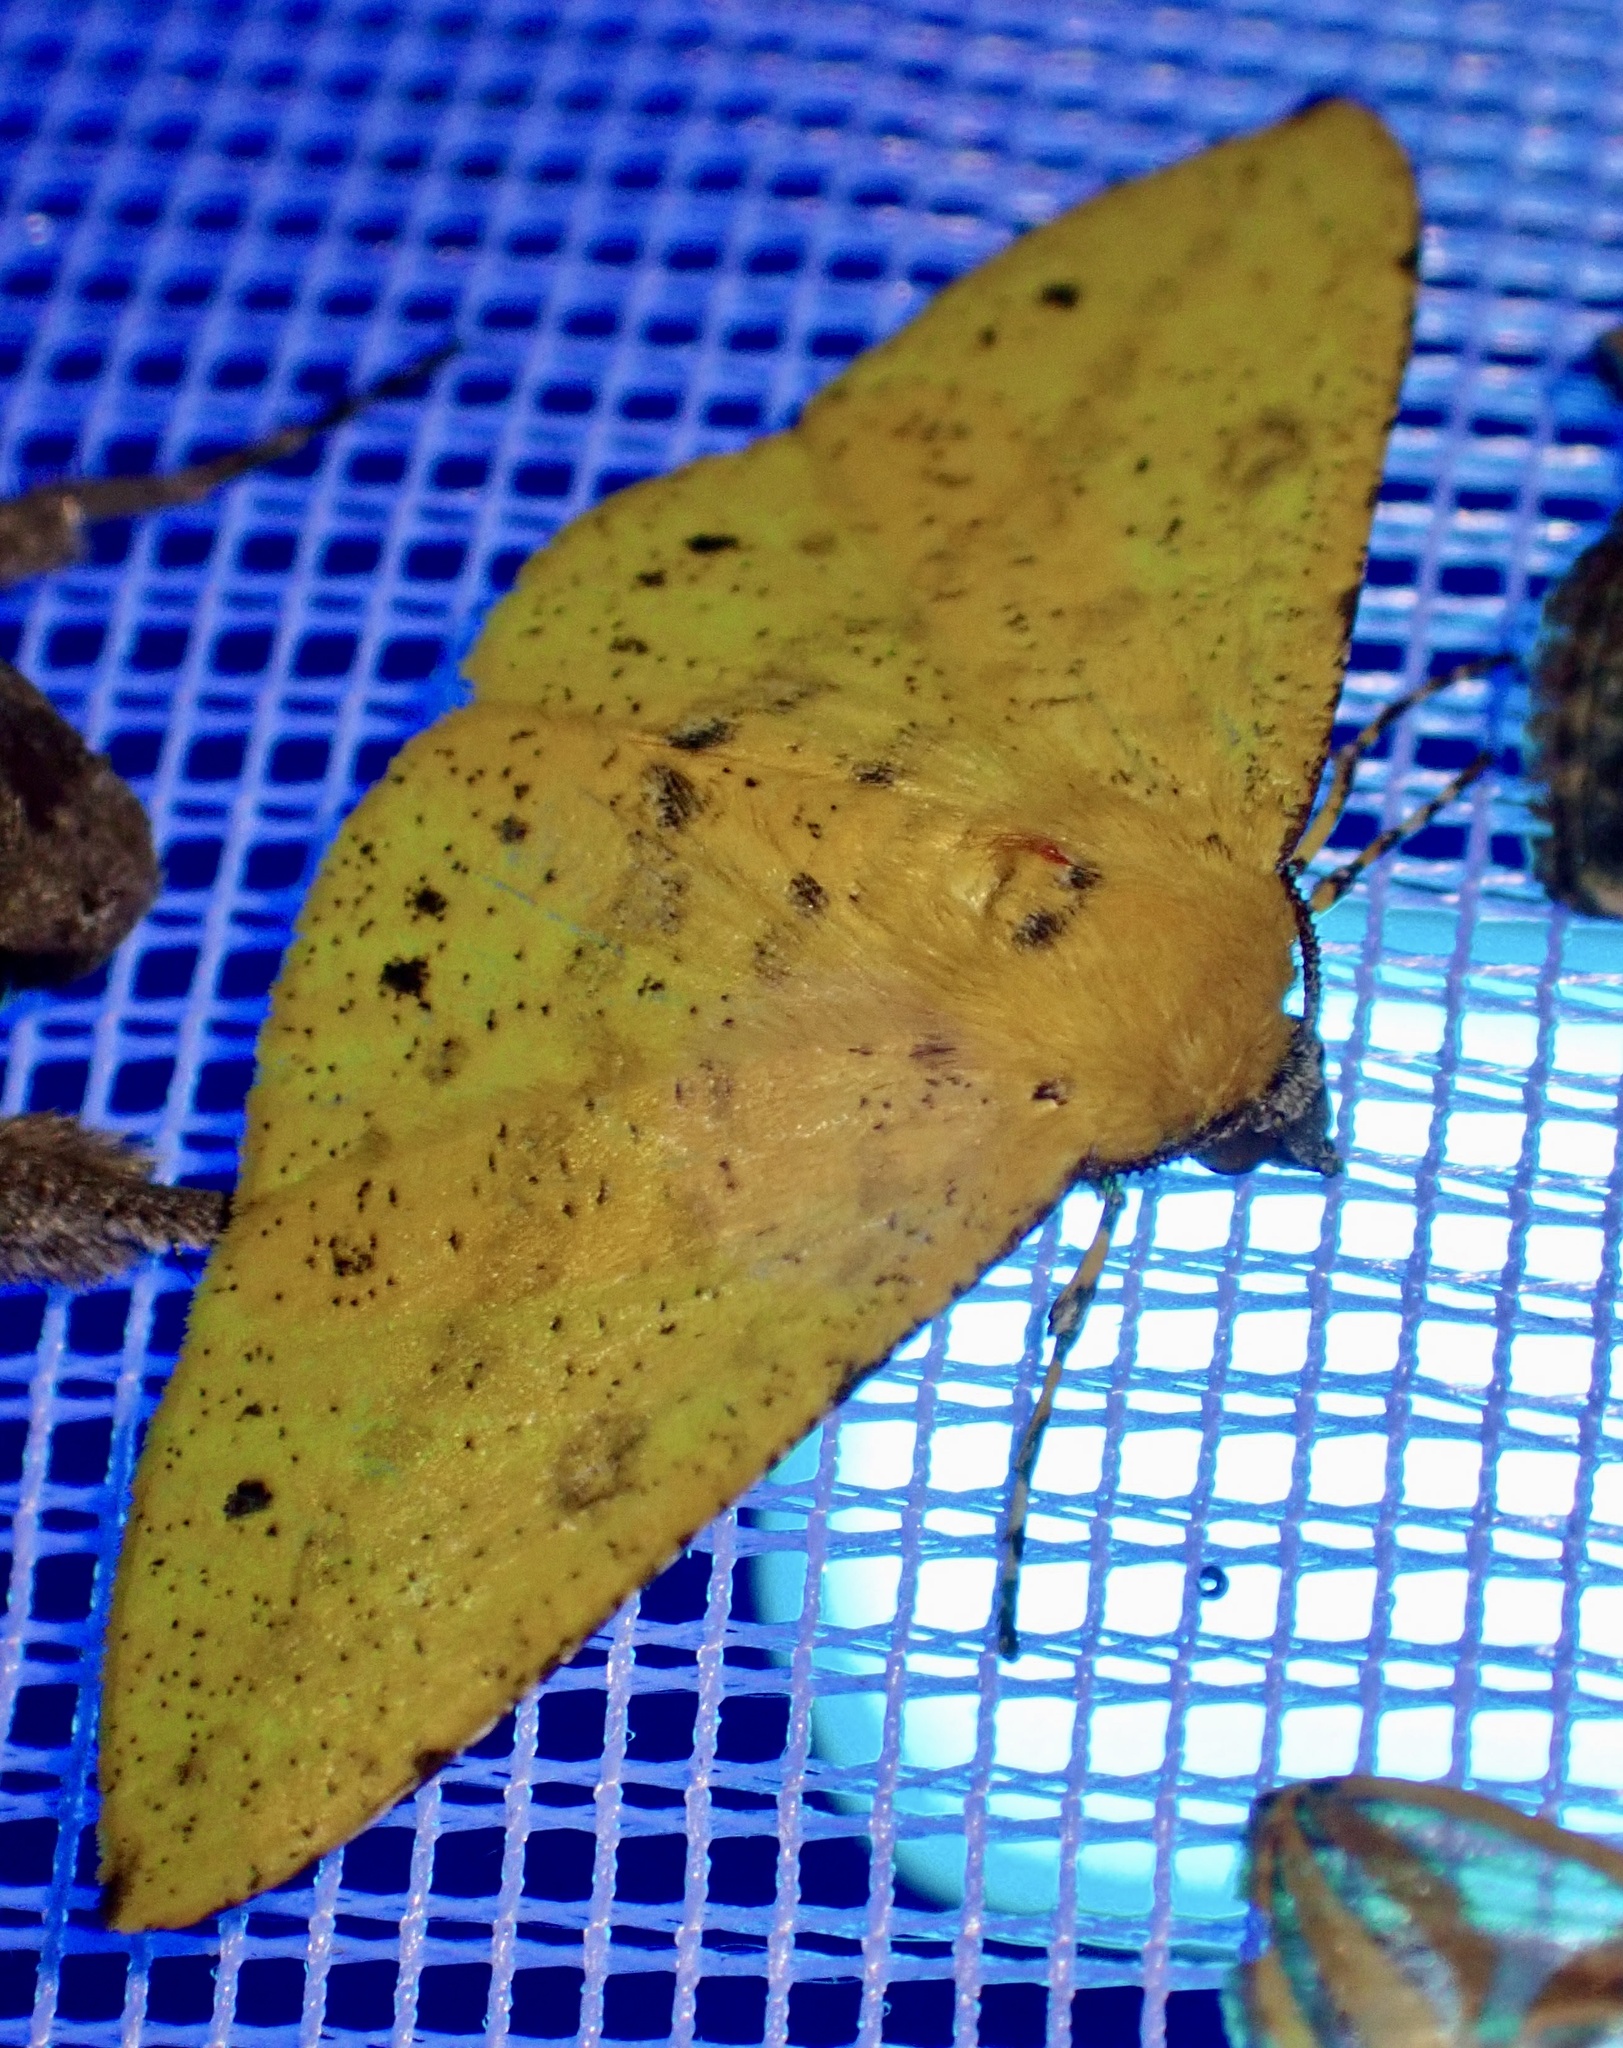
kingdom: Animalia
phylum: Arthropoda
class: Insecta
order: Lepidoptera
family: Geometridae
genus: Cholomiza
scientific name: Cholomiza tanypus
